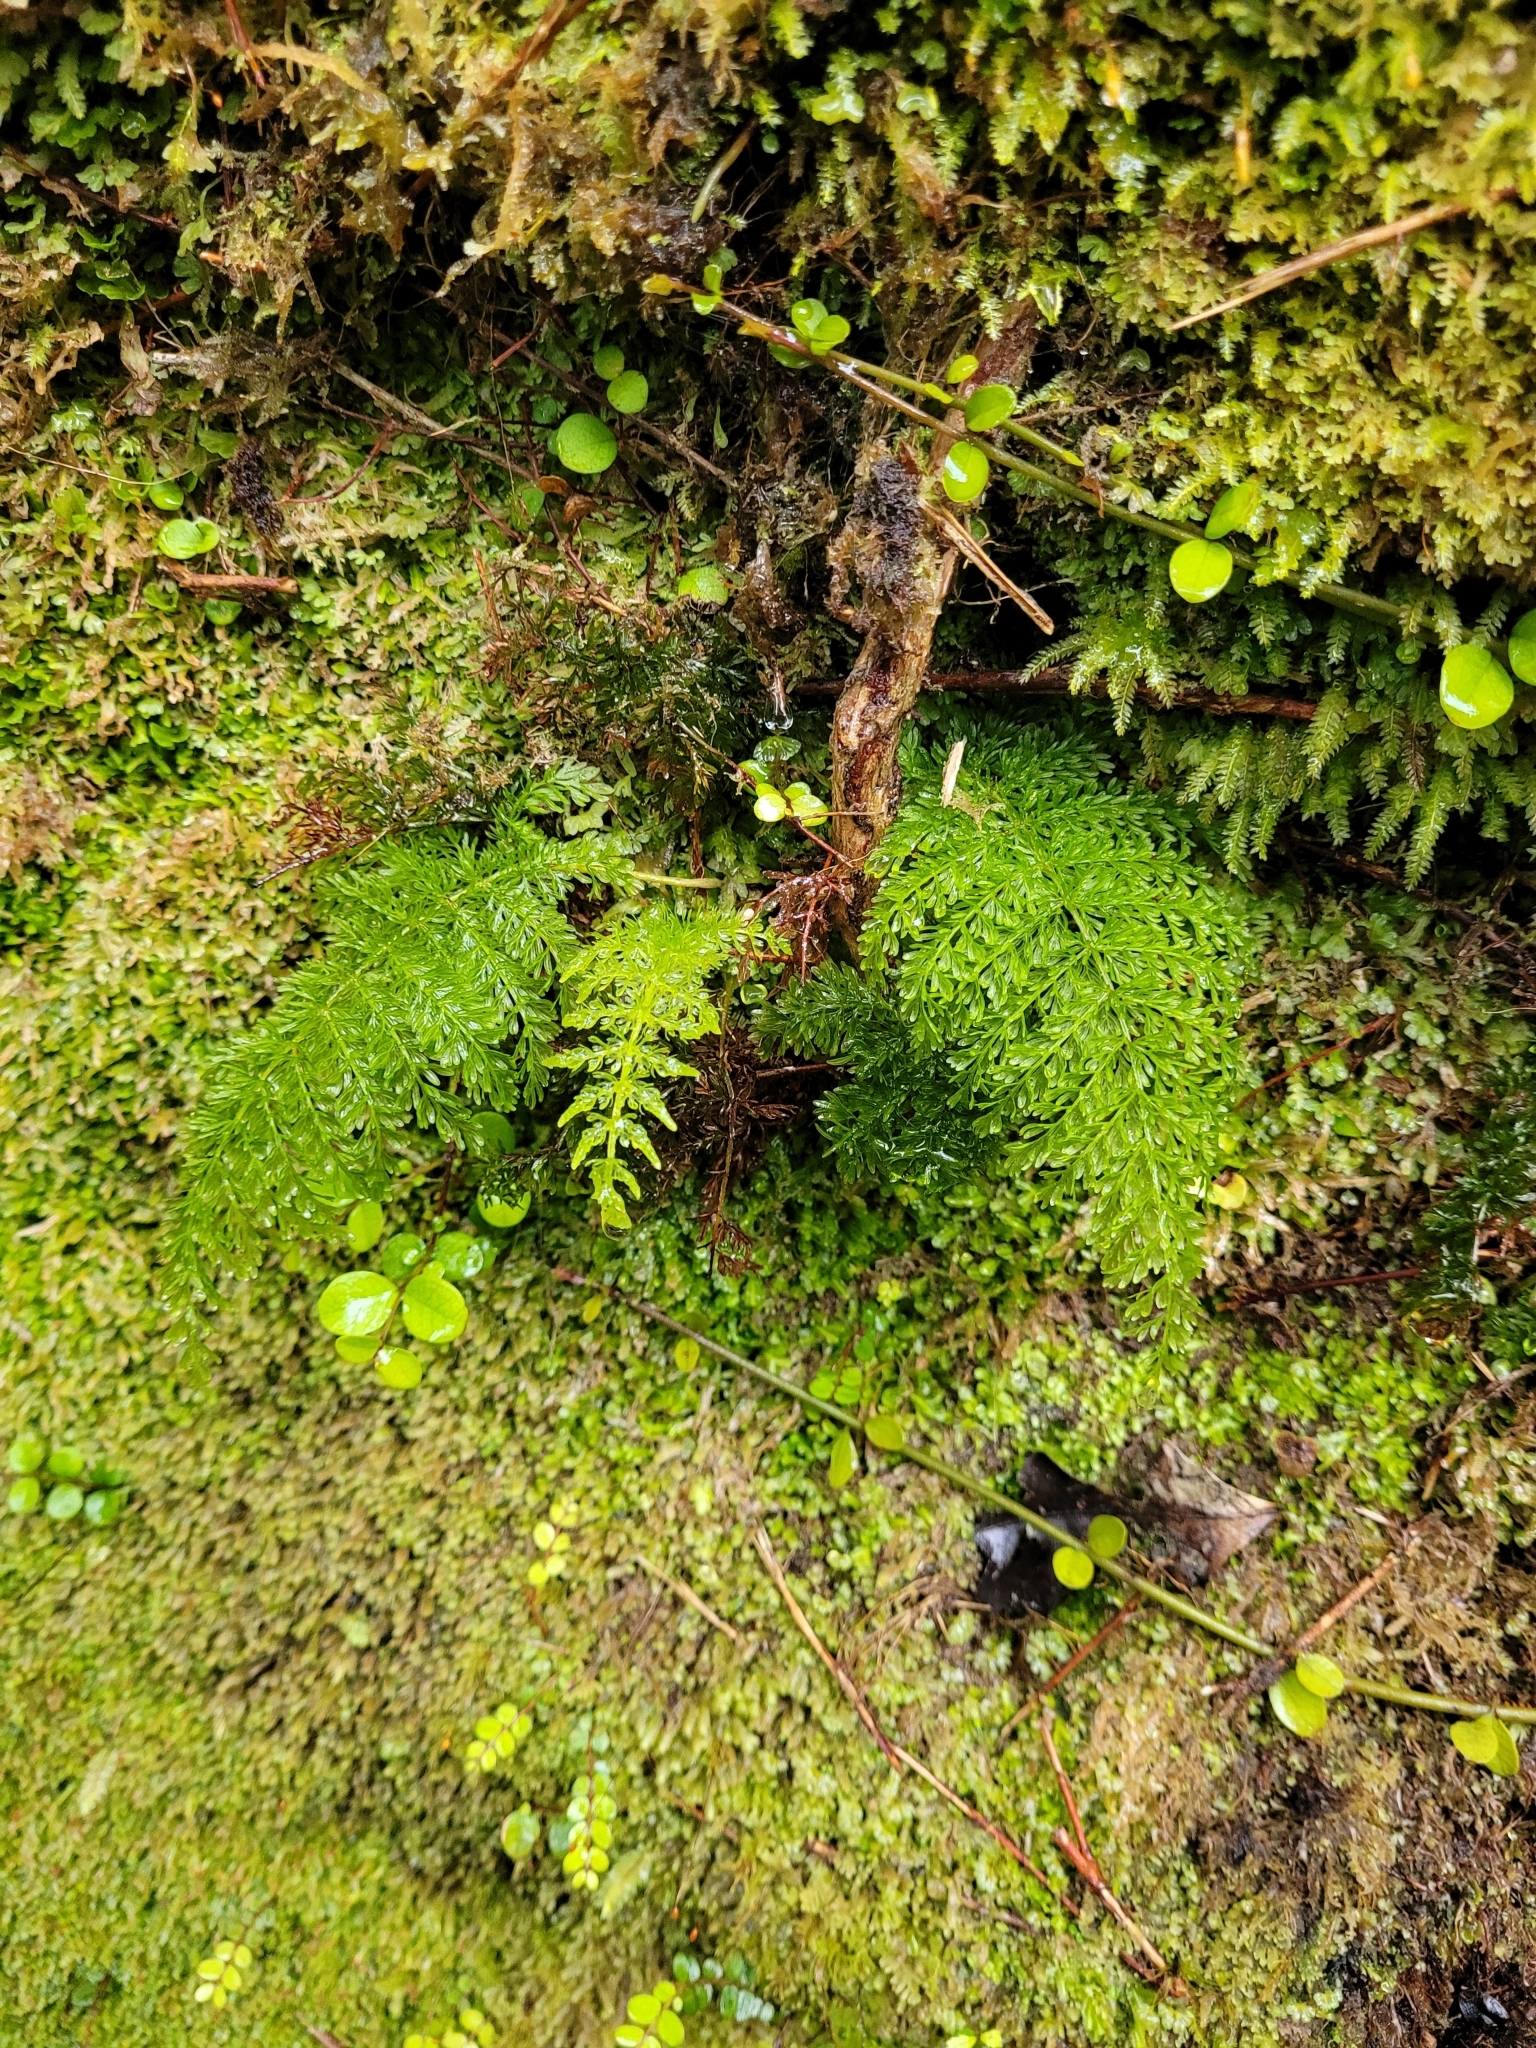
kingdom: Plantae
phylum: Tracheophyta
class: Polypodiopsida
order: Osmundales
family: Osmundaceae
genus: Leptopteris
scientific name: Leptopteris superba
